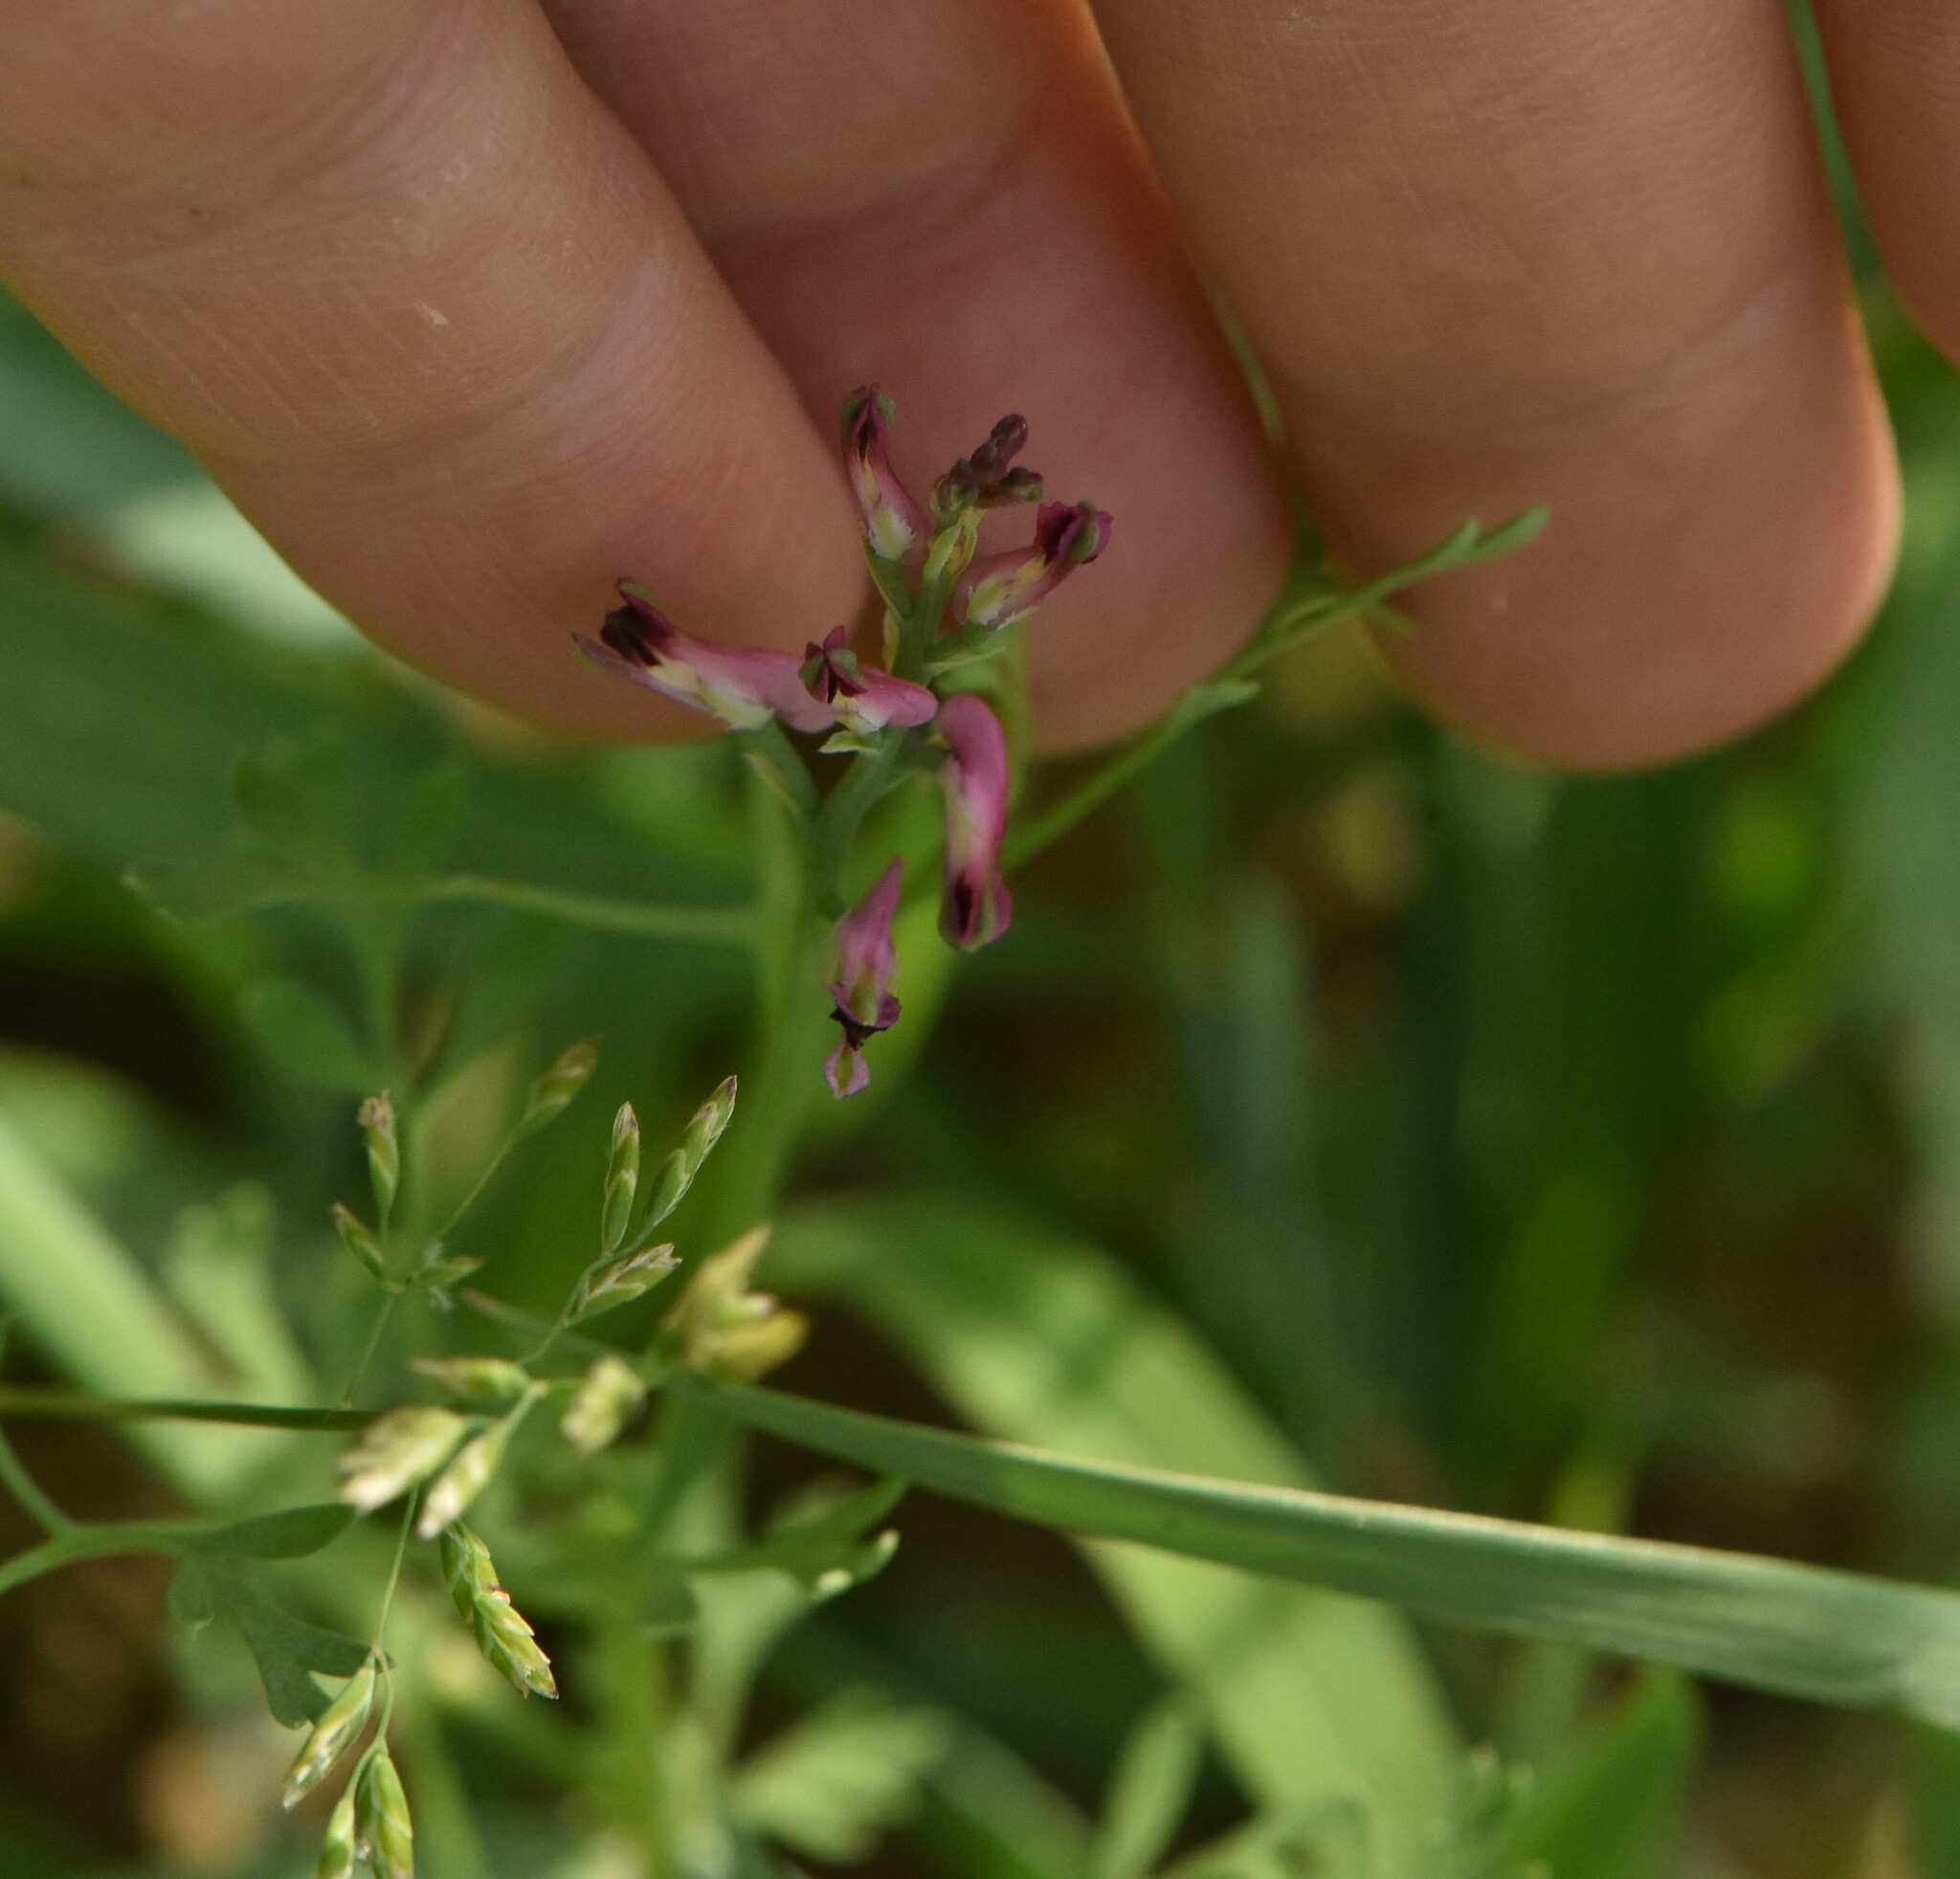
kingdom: Plantae
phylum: Tracheophyta
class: Magnoliopsida
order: Ranunculales
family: Papaveraceae
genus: Fumaria
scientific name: Fumaria officinalis
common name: Common fumitory
